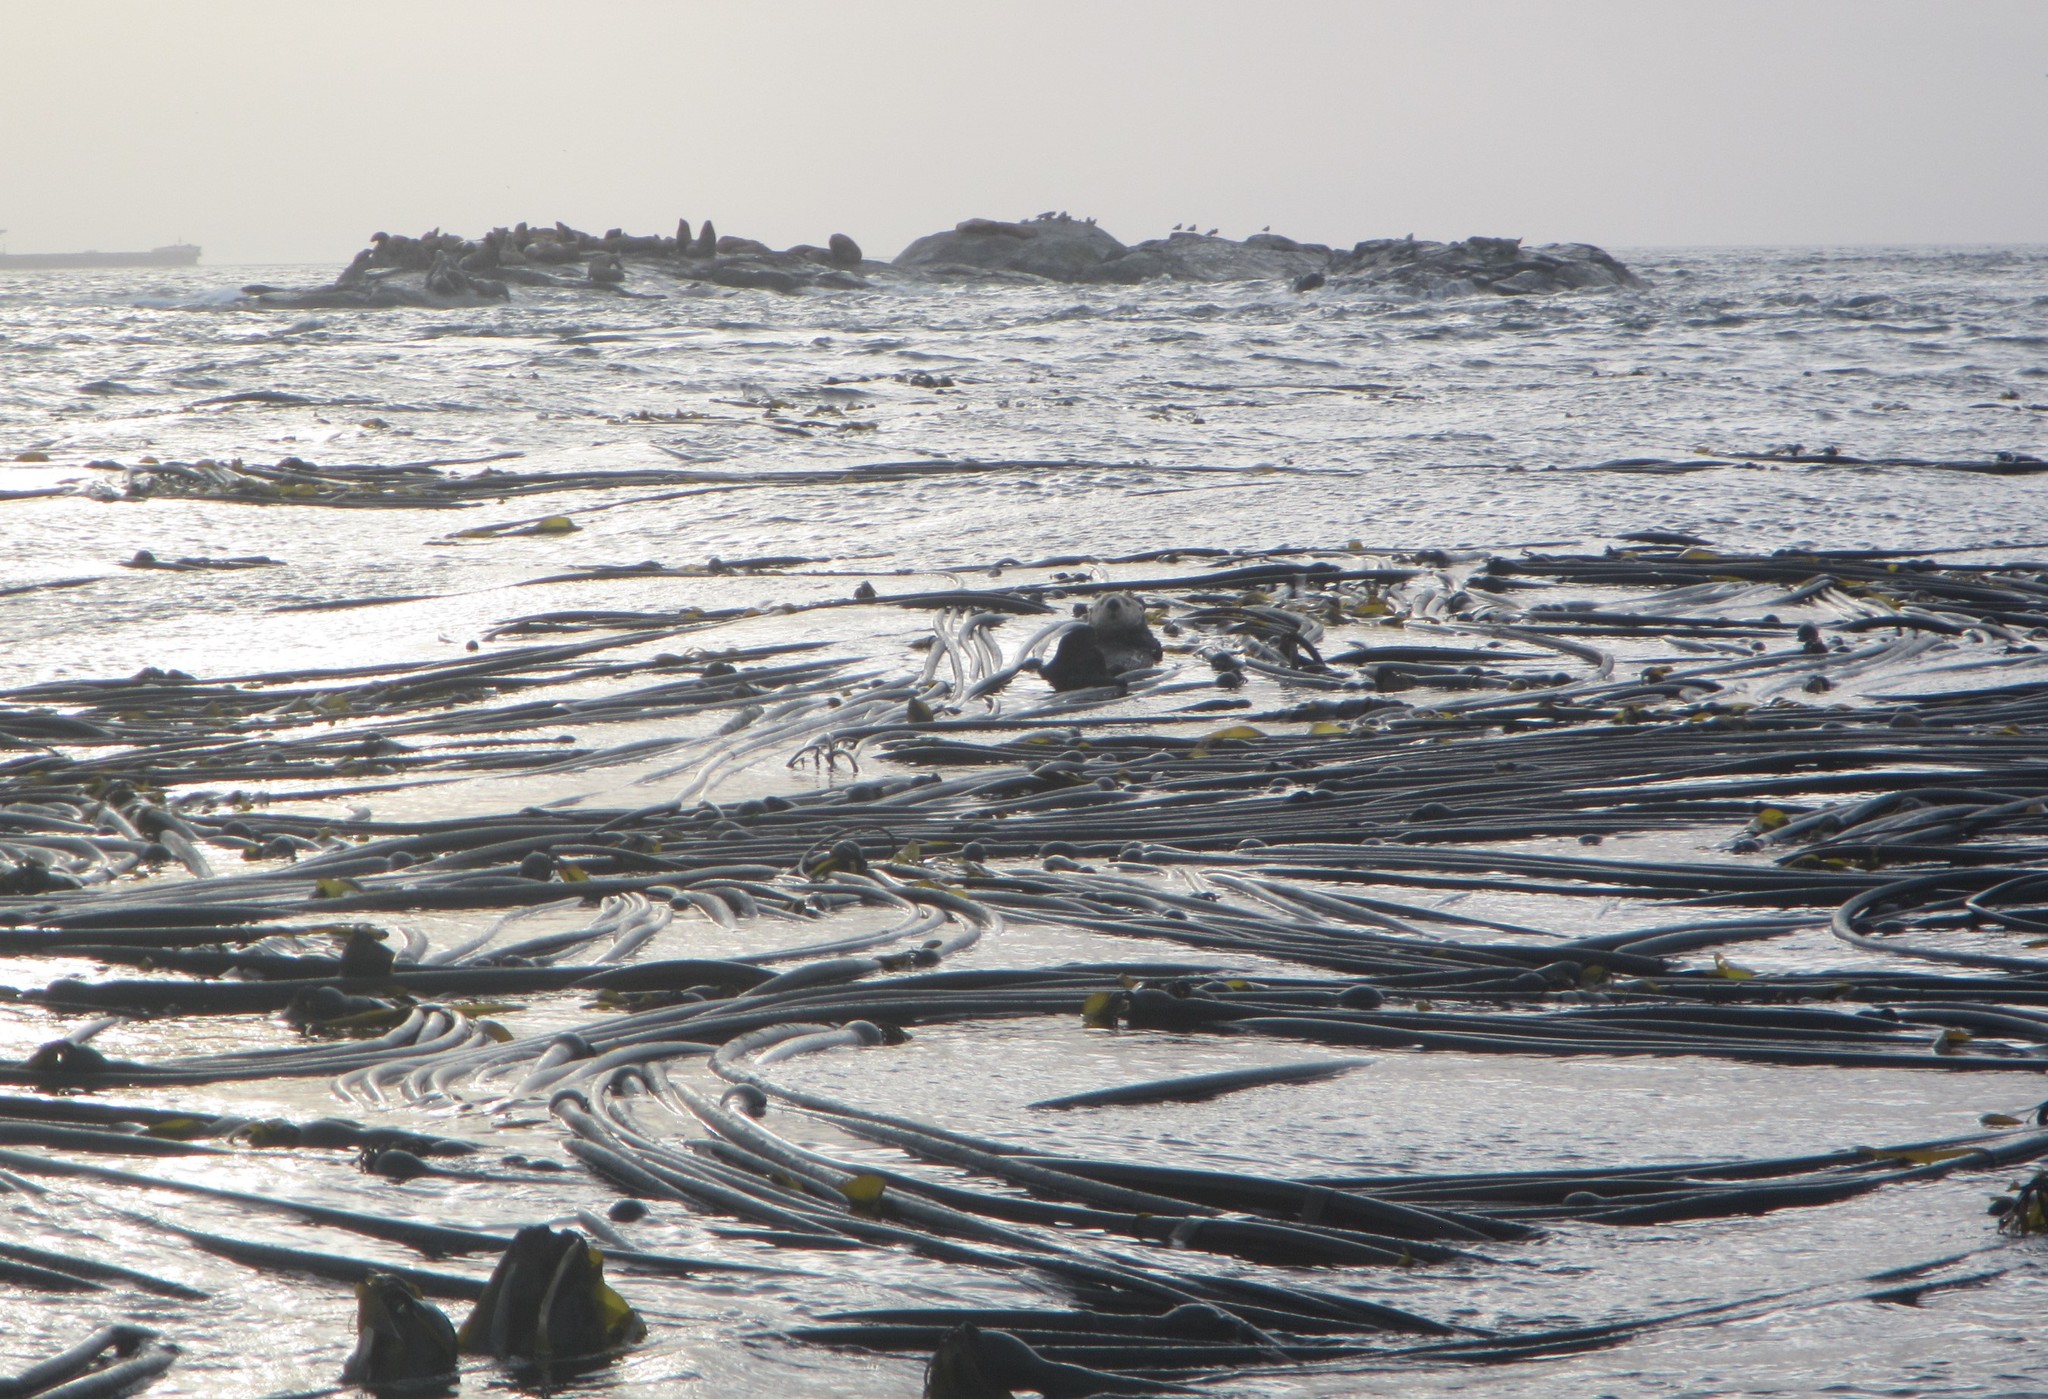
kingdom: Animalia
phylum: Chordata
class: Mammalia
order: Carnivora
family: Mustelidae
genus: Enhydra
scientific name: Enhydra lutris
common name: Sea otter
